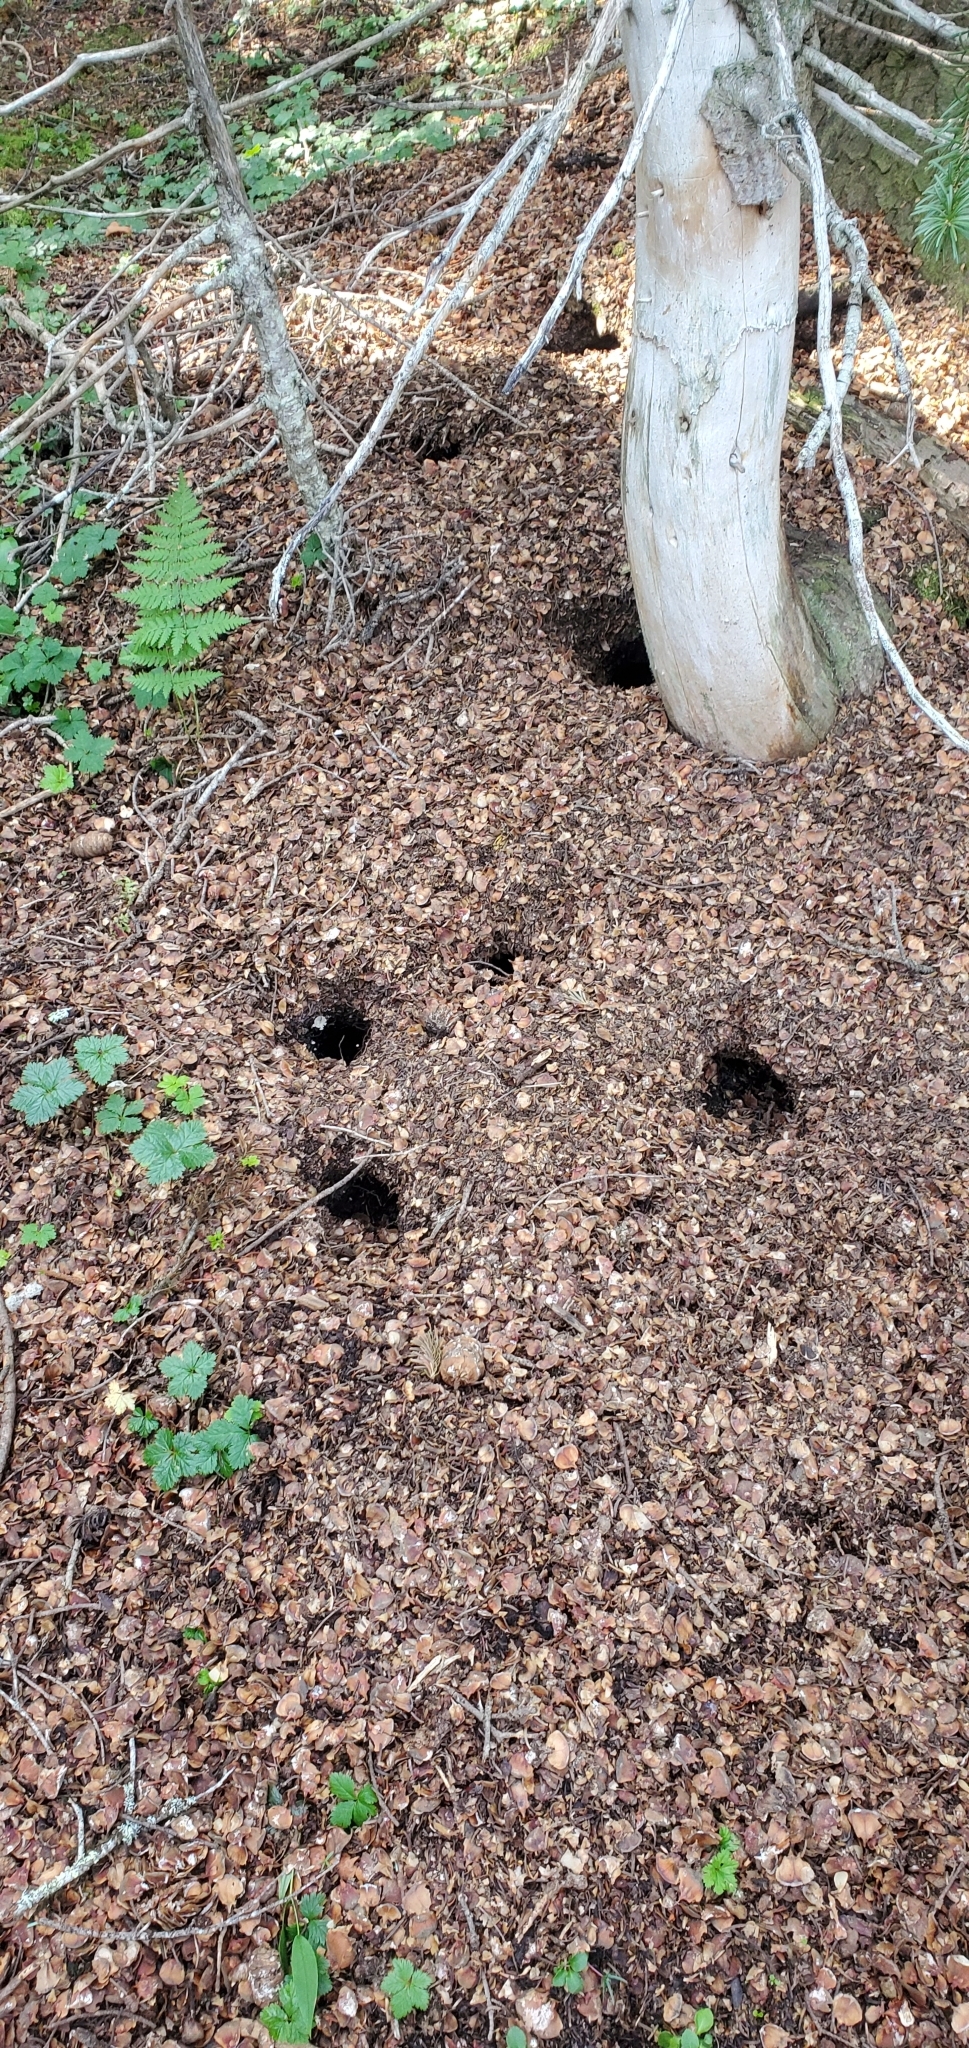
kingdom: Animalia
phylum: Chordata
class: Mammalia
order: Rodentia
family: Sciuridae
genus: Tamiasciurus
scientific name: Tamiasciurus hudsonicus
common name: Red squirrel
